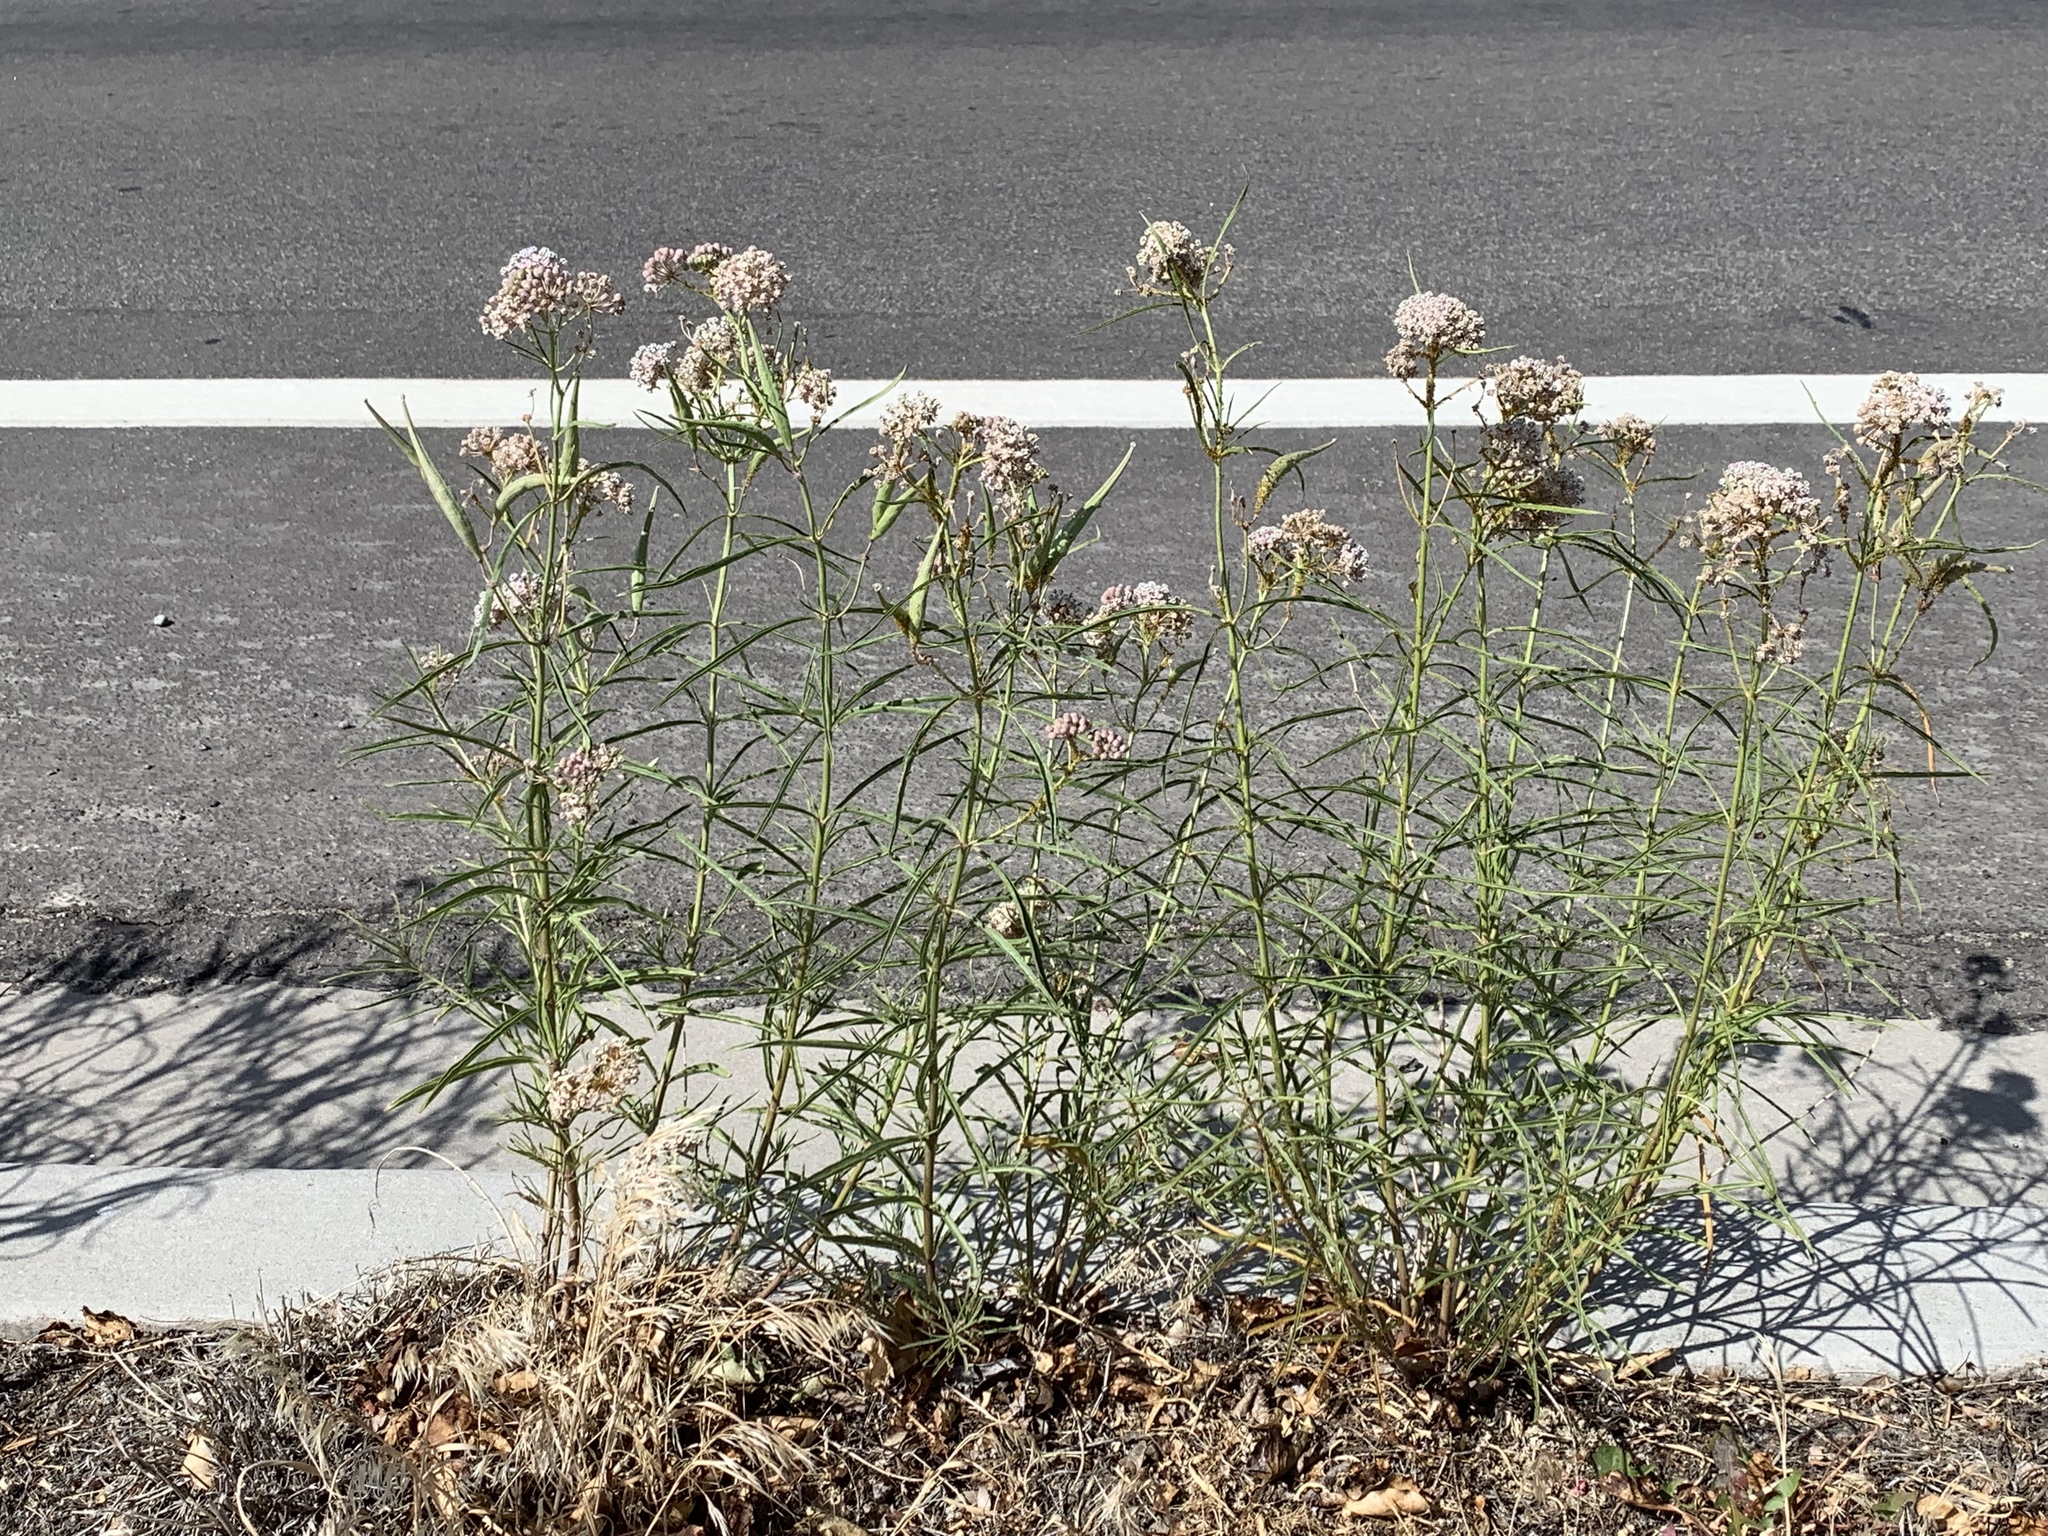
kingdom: Plantae
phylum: Tracheophyta
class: Magnoliopsida
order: Gentianales
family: Apocynaceae
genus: Asclepias
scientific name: Asclepias fascicularis
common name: Mexican milkweed
